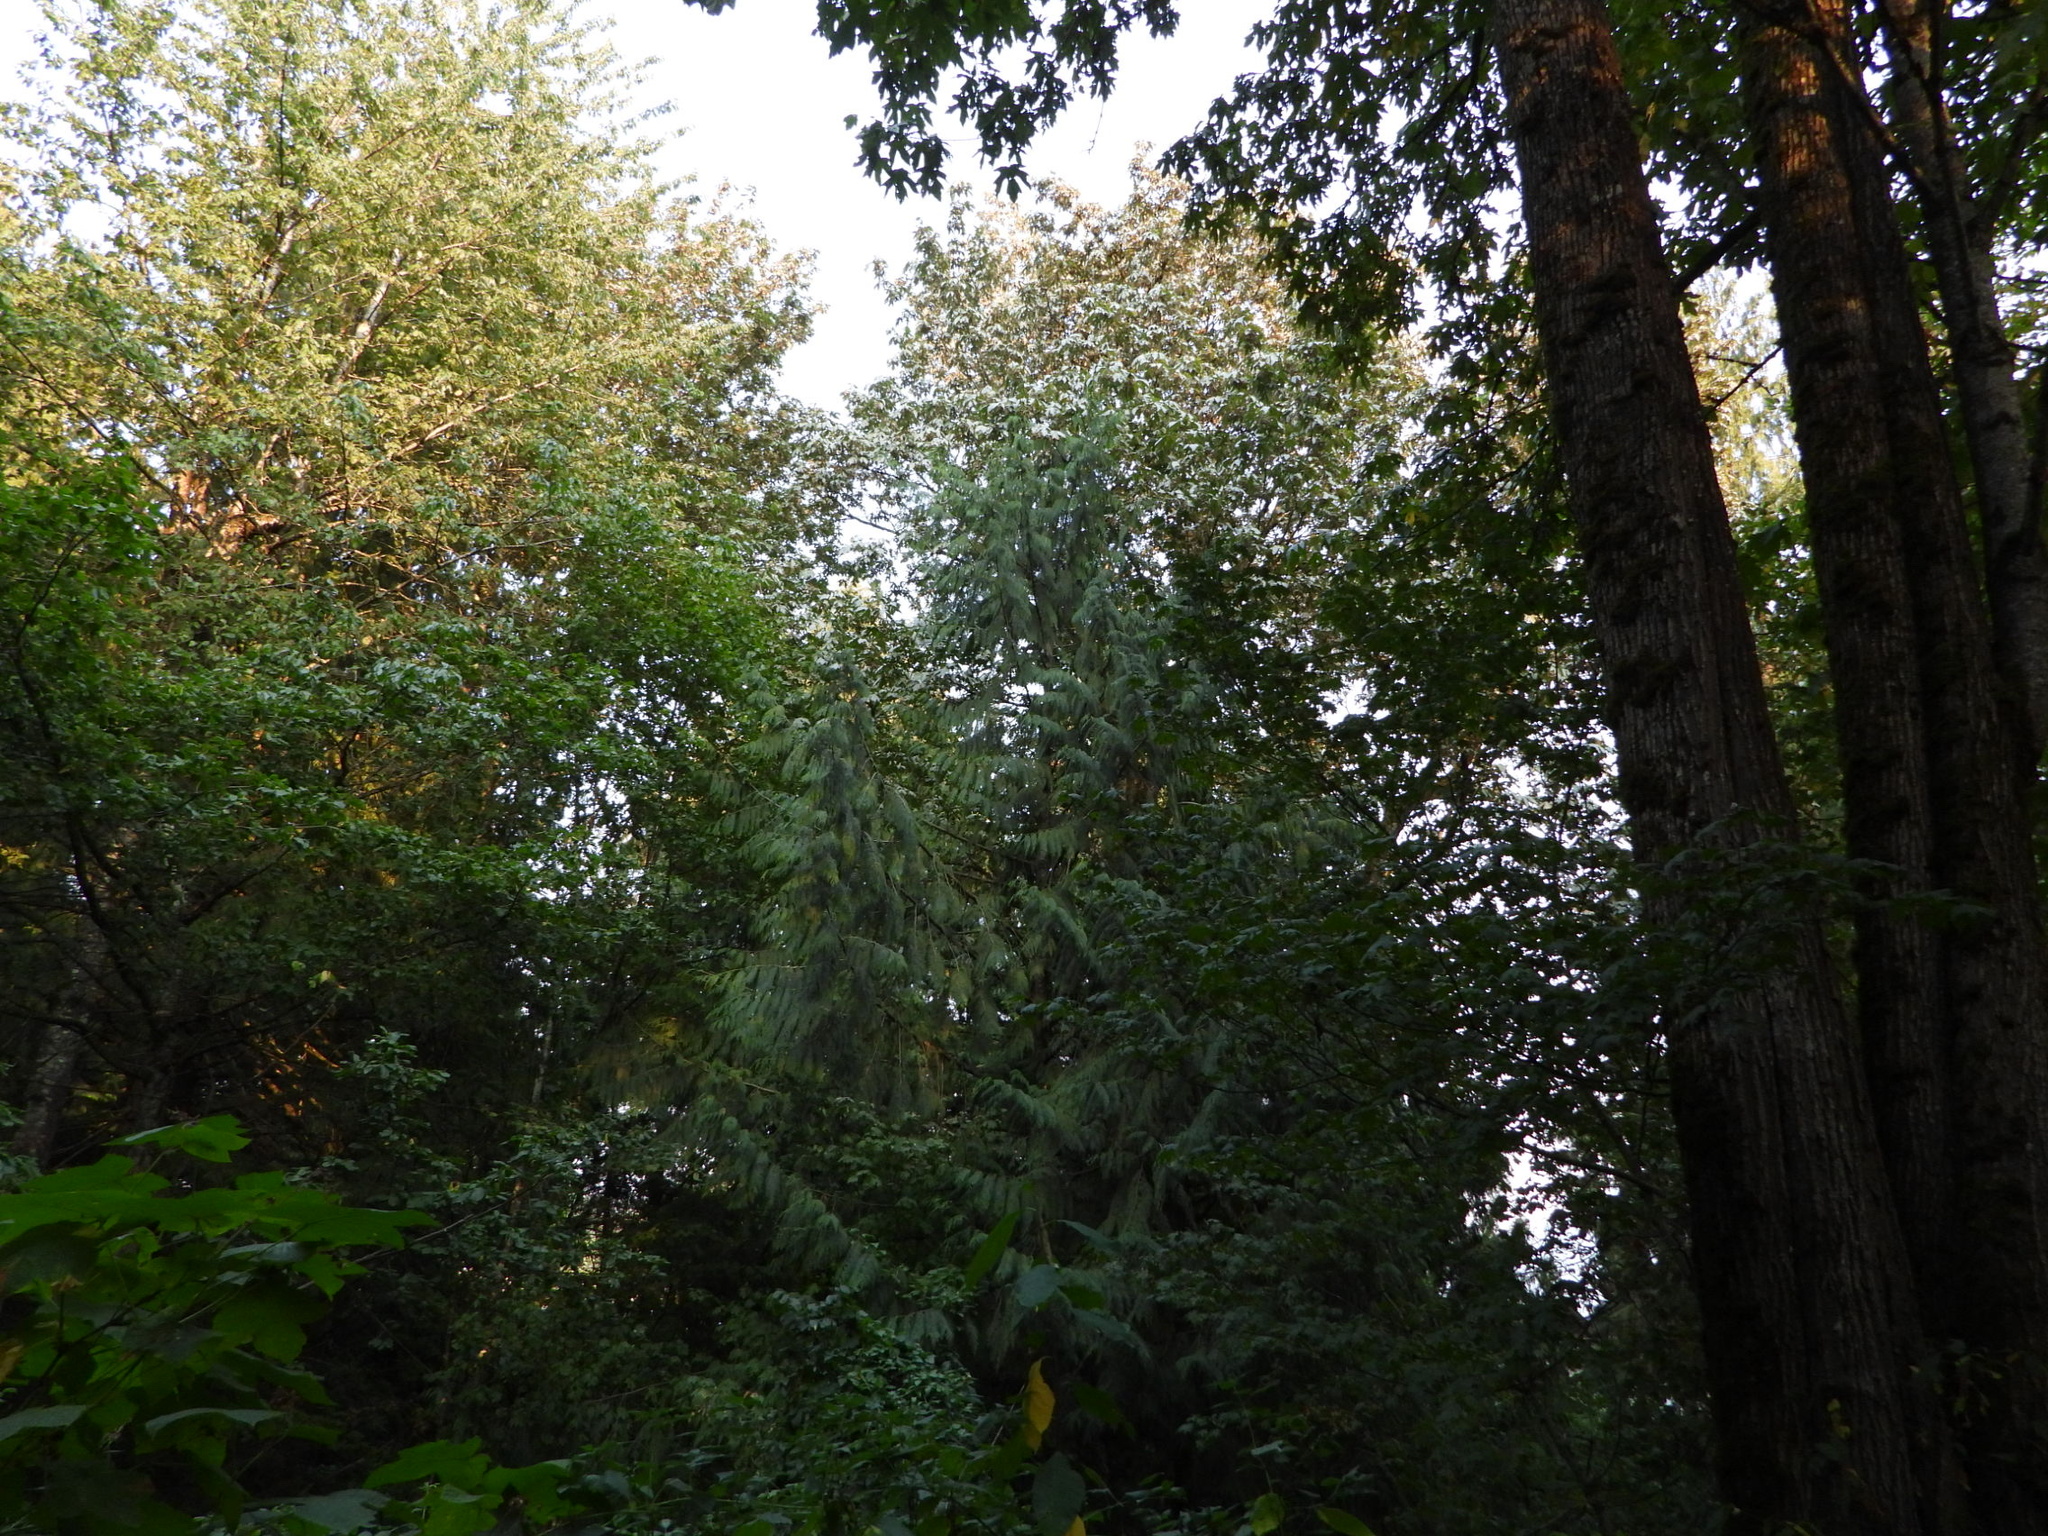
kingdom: Plantae
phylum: Tracheophyta
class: Pinopsida
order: Pinales
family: Cupressaceae
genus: Thuja
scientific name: Thuja plicata
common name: Western red-cedar
